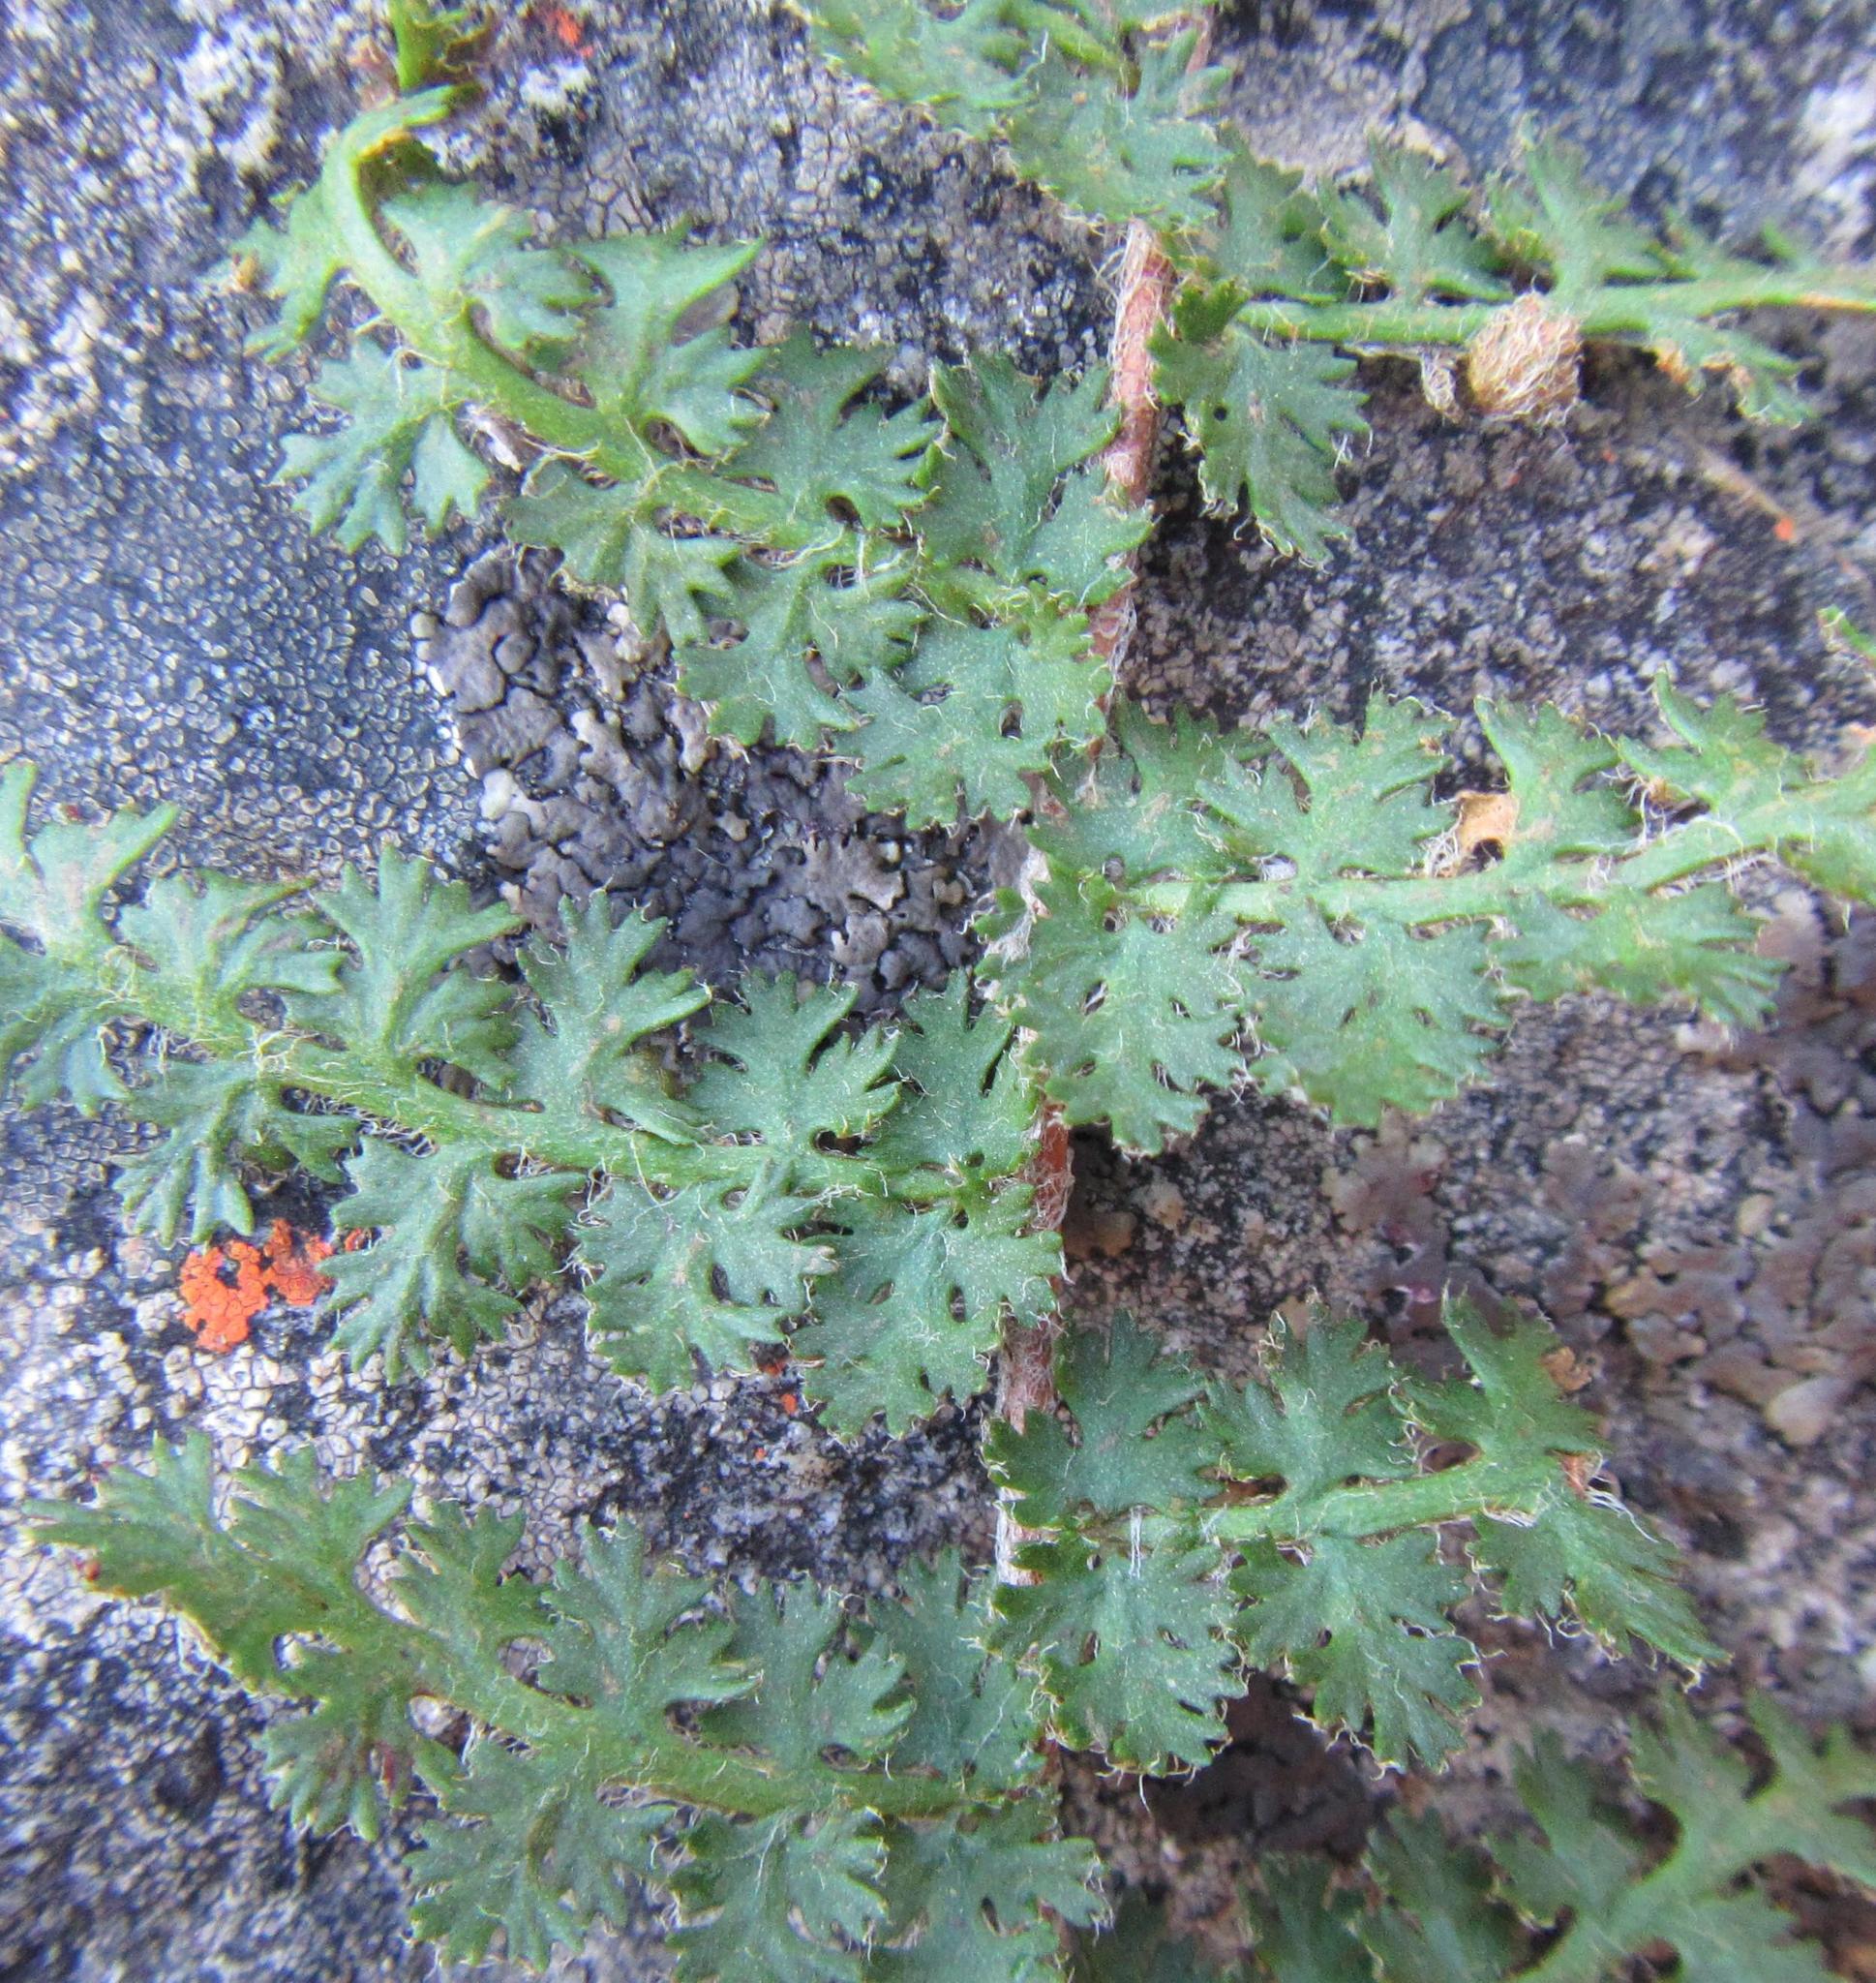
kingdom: Plantae
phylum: Tracheophyta
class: Polypodiopsida
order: Schizaeales
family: Anemiaceae
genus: Anemia
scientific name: Anemia caffrorum
